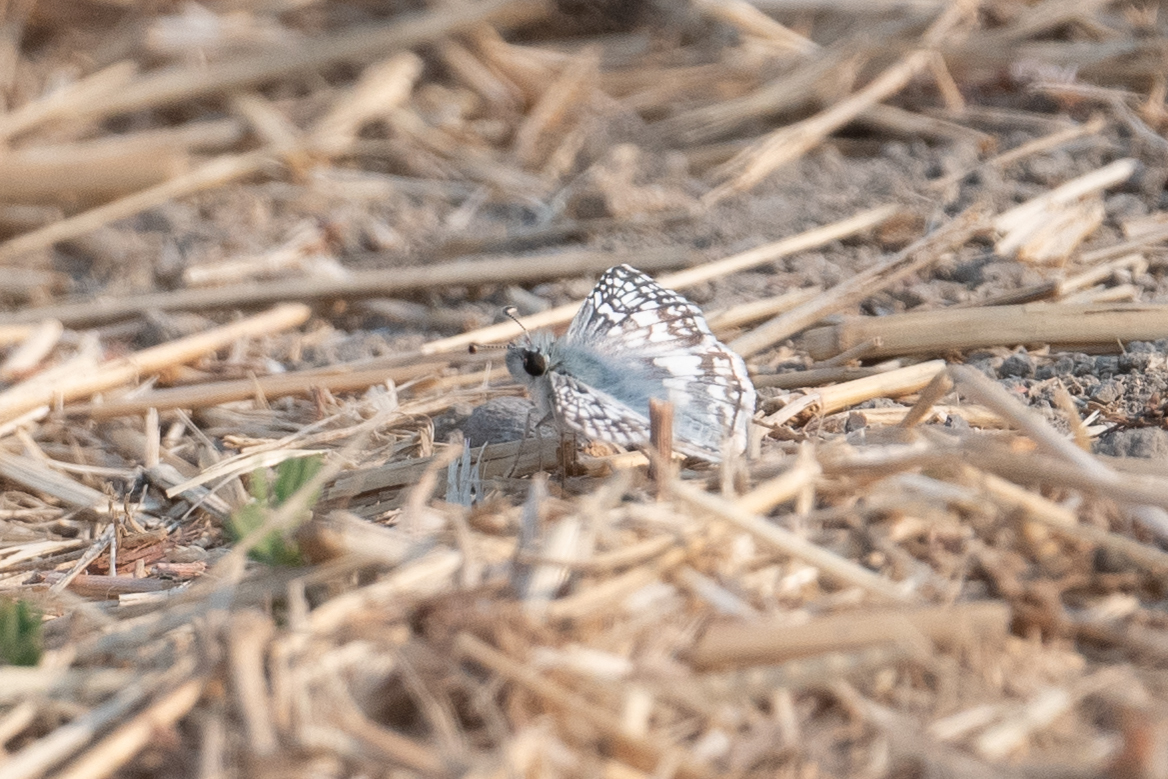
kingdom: Animalia
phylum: Arthropoda
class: Insecta
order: Lepidoptera
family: Hesperiidae
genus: Burnsius
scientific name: Burnsius communis
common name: Common checkered-skipper
